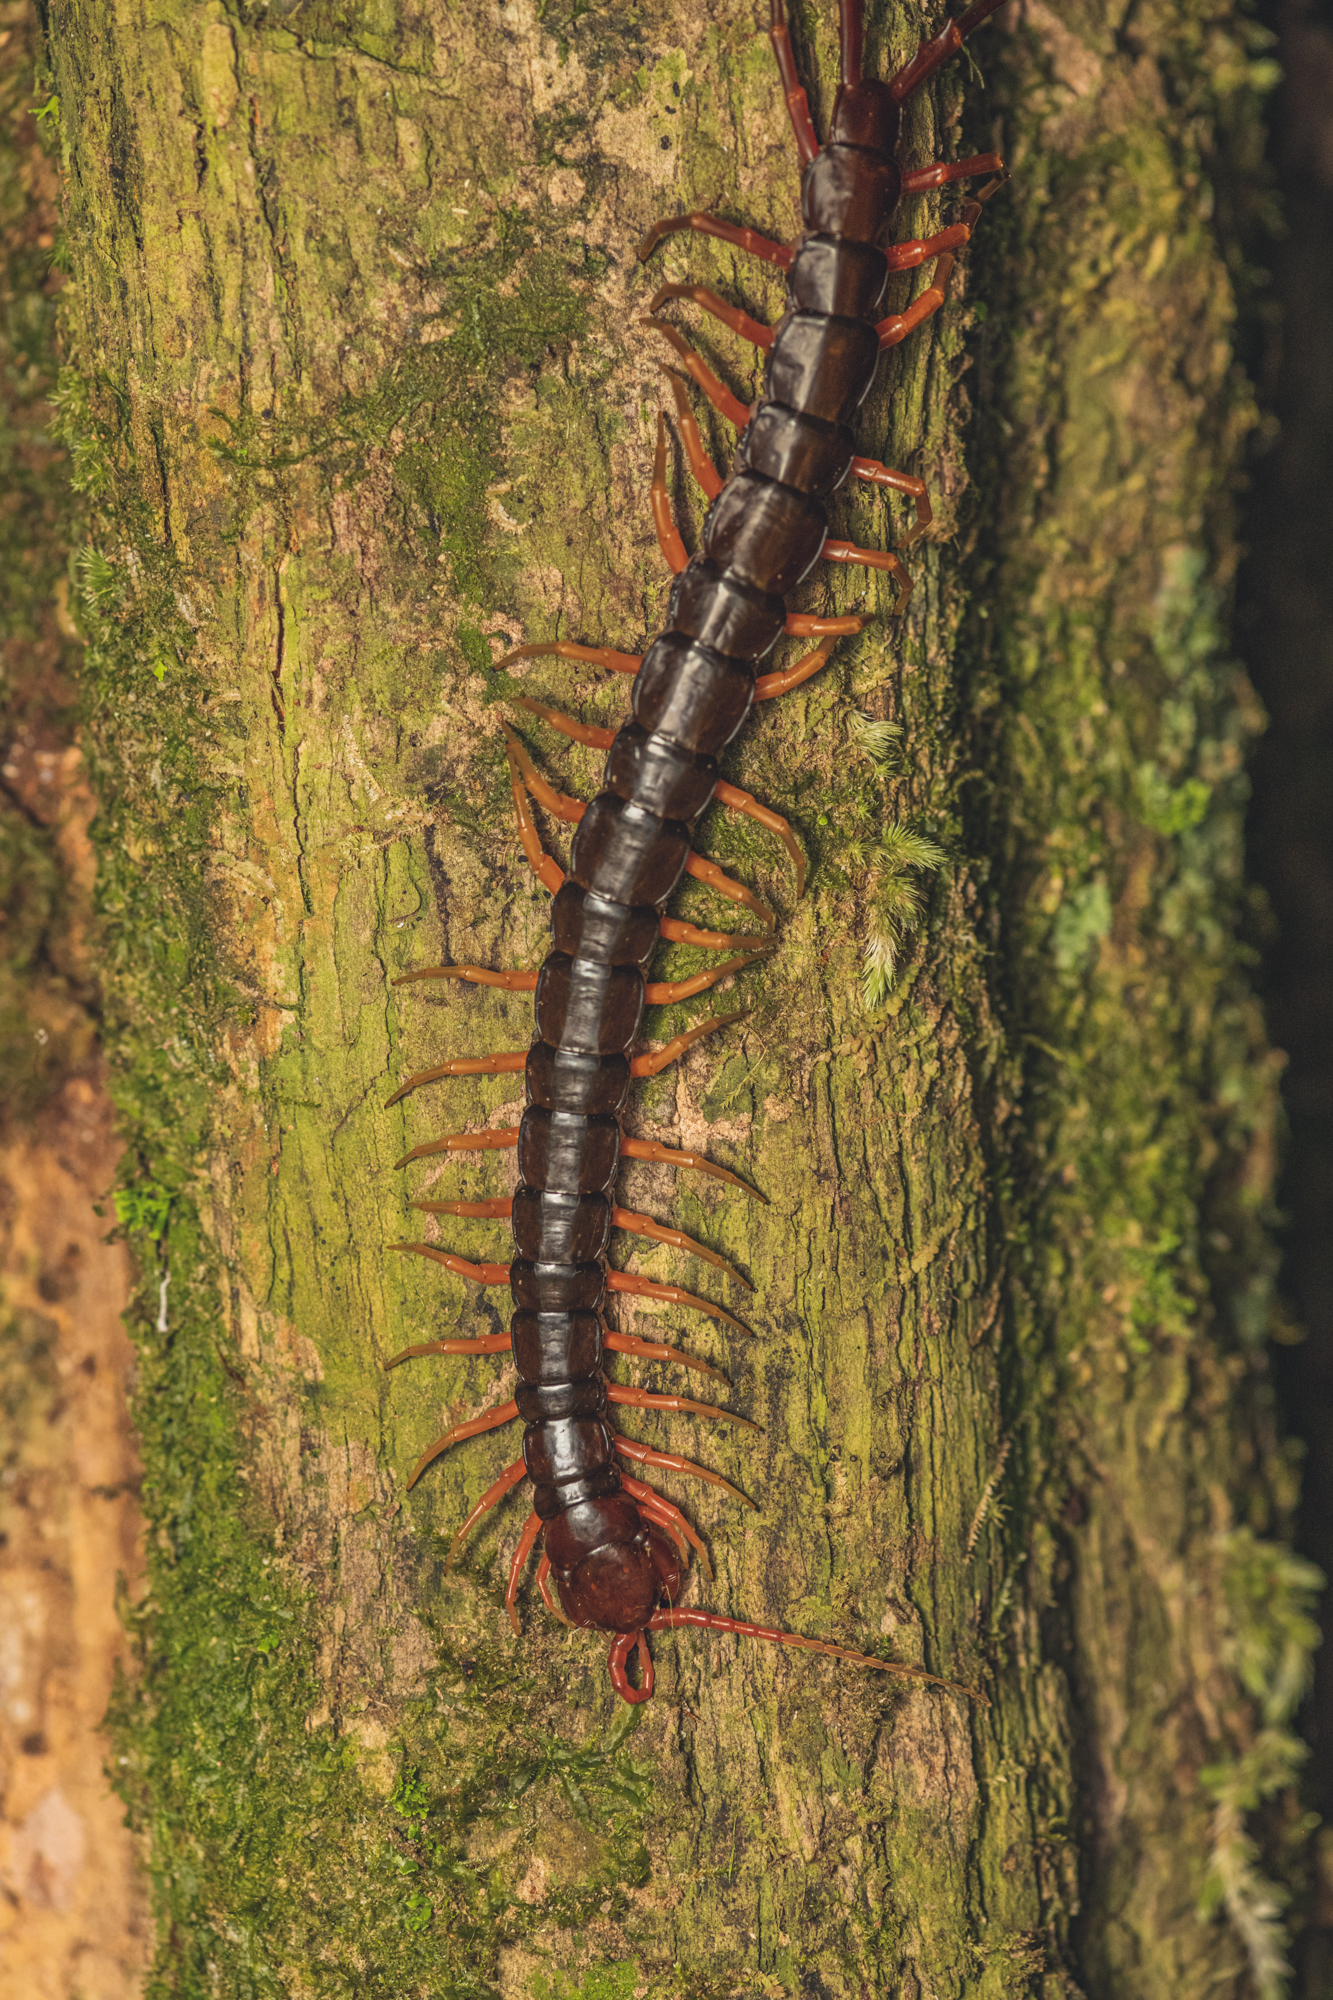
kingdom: Animalia
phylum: Arthropoda
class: Chilopoda
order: Scolopendromorpha
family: Scolopendridae
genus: Scolopendra
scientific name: Scolopendra subspinipes
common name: Centipede
